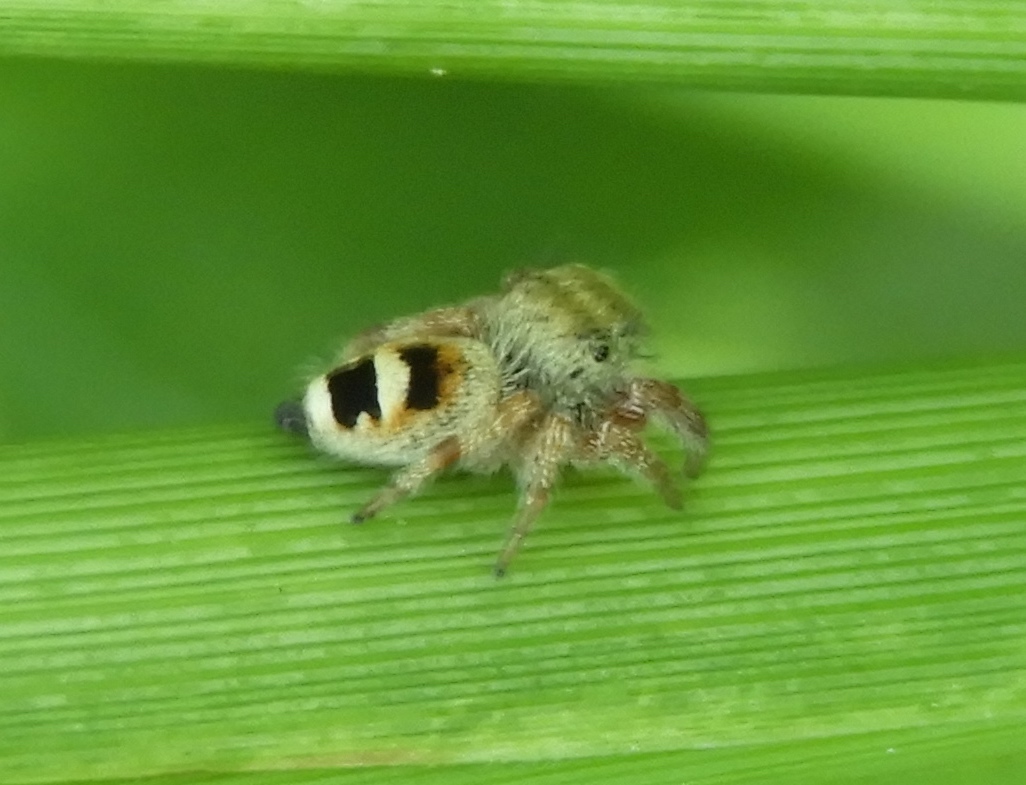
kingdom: Animalia
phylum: Arthropoda
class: Arachnida
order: Araneae
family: Salticidae
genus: Phidippus
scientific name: Phidippus pacosauritus
